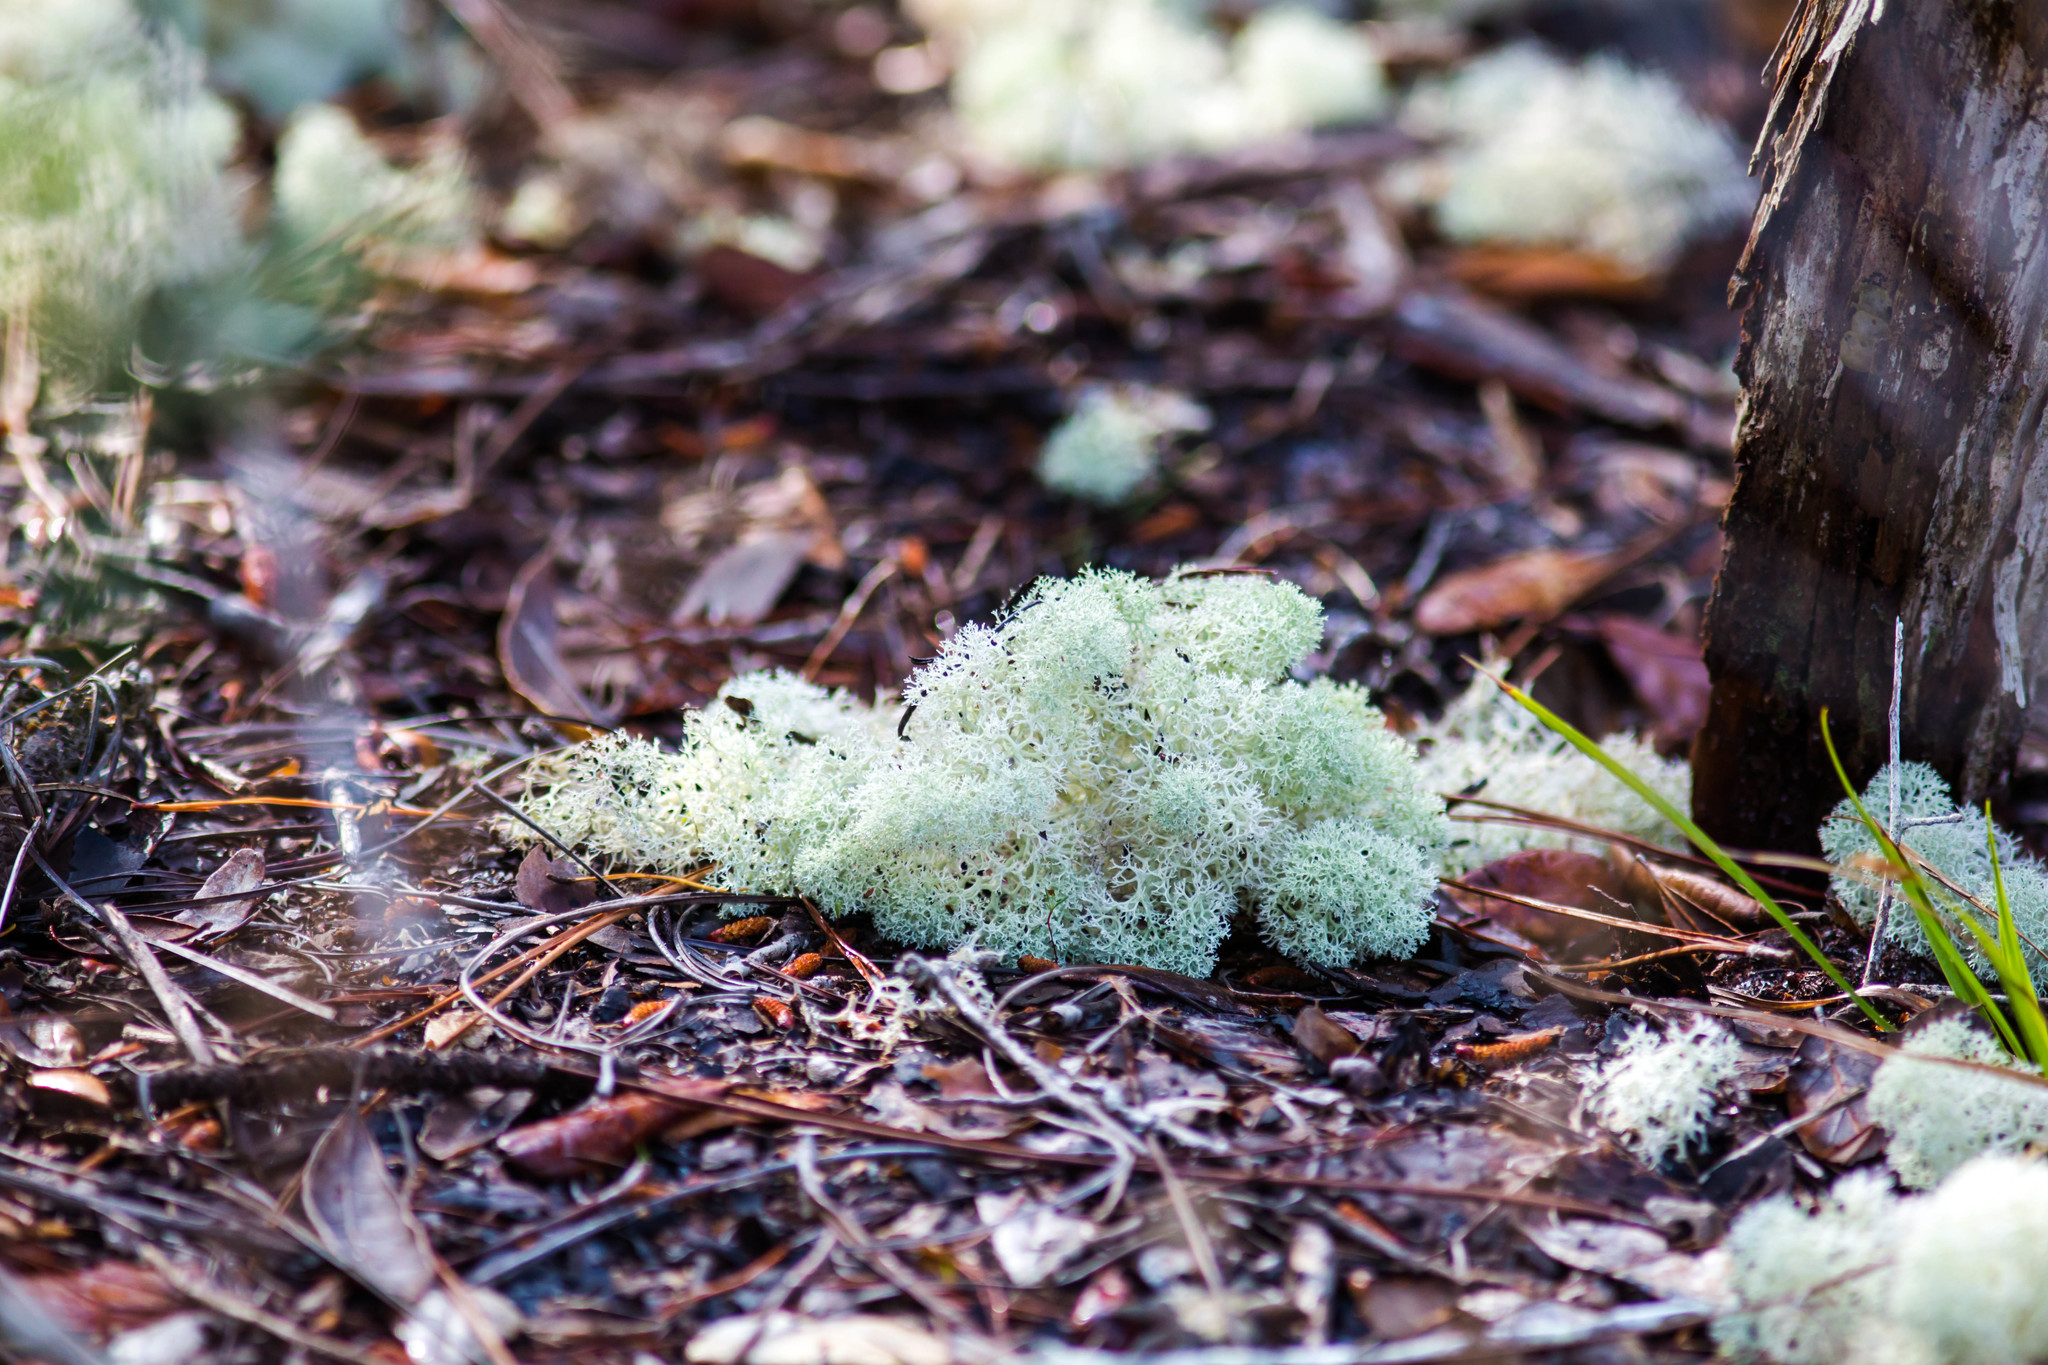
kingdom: Fungi
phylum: Ascomycota
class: Lecanoromycetes
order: Lecanorales
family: Cladoniaceae
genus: Cladonia
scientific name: Cladonia evansii
